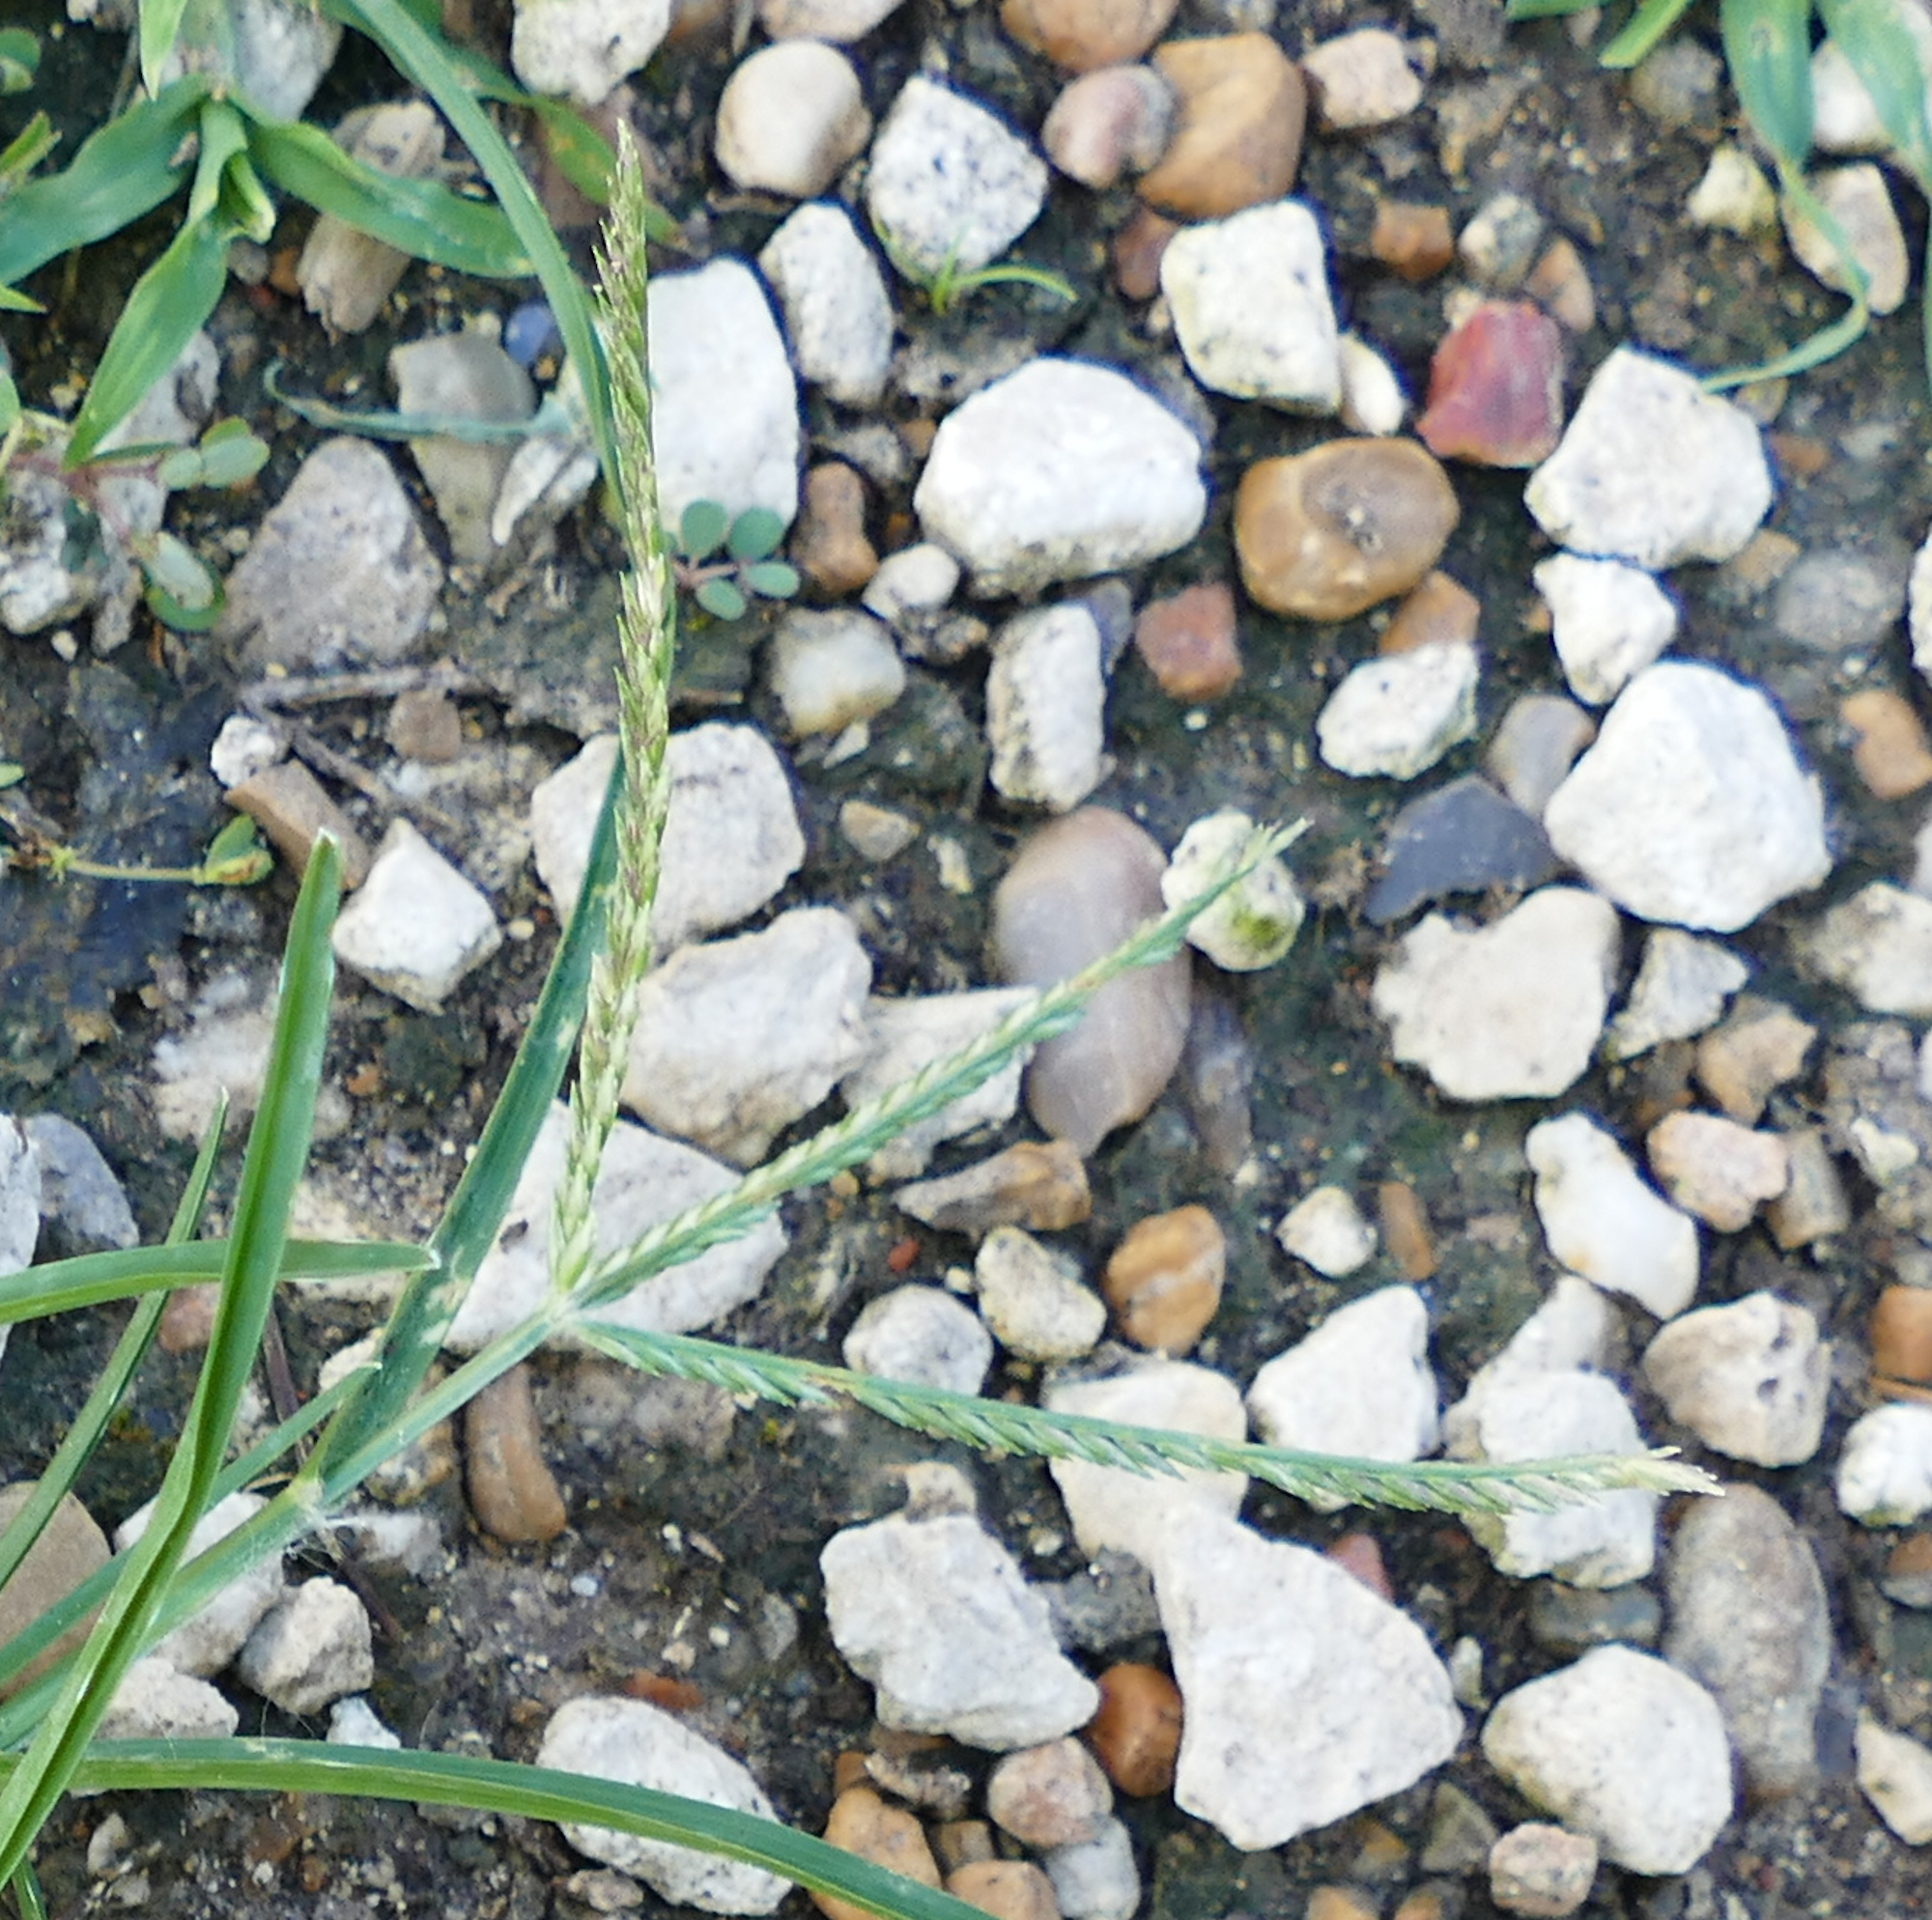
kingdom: Plantae
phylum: Tracheophyta
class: Liliopsida
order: Poales
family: Poaceae
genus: Eleusine
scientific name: Eleusine indica
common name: Yard-grass
